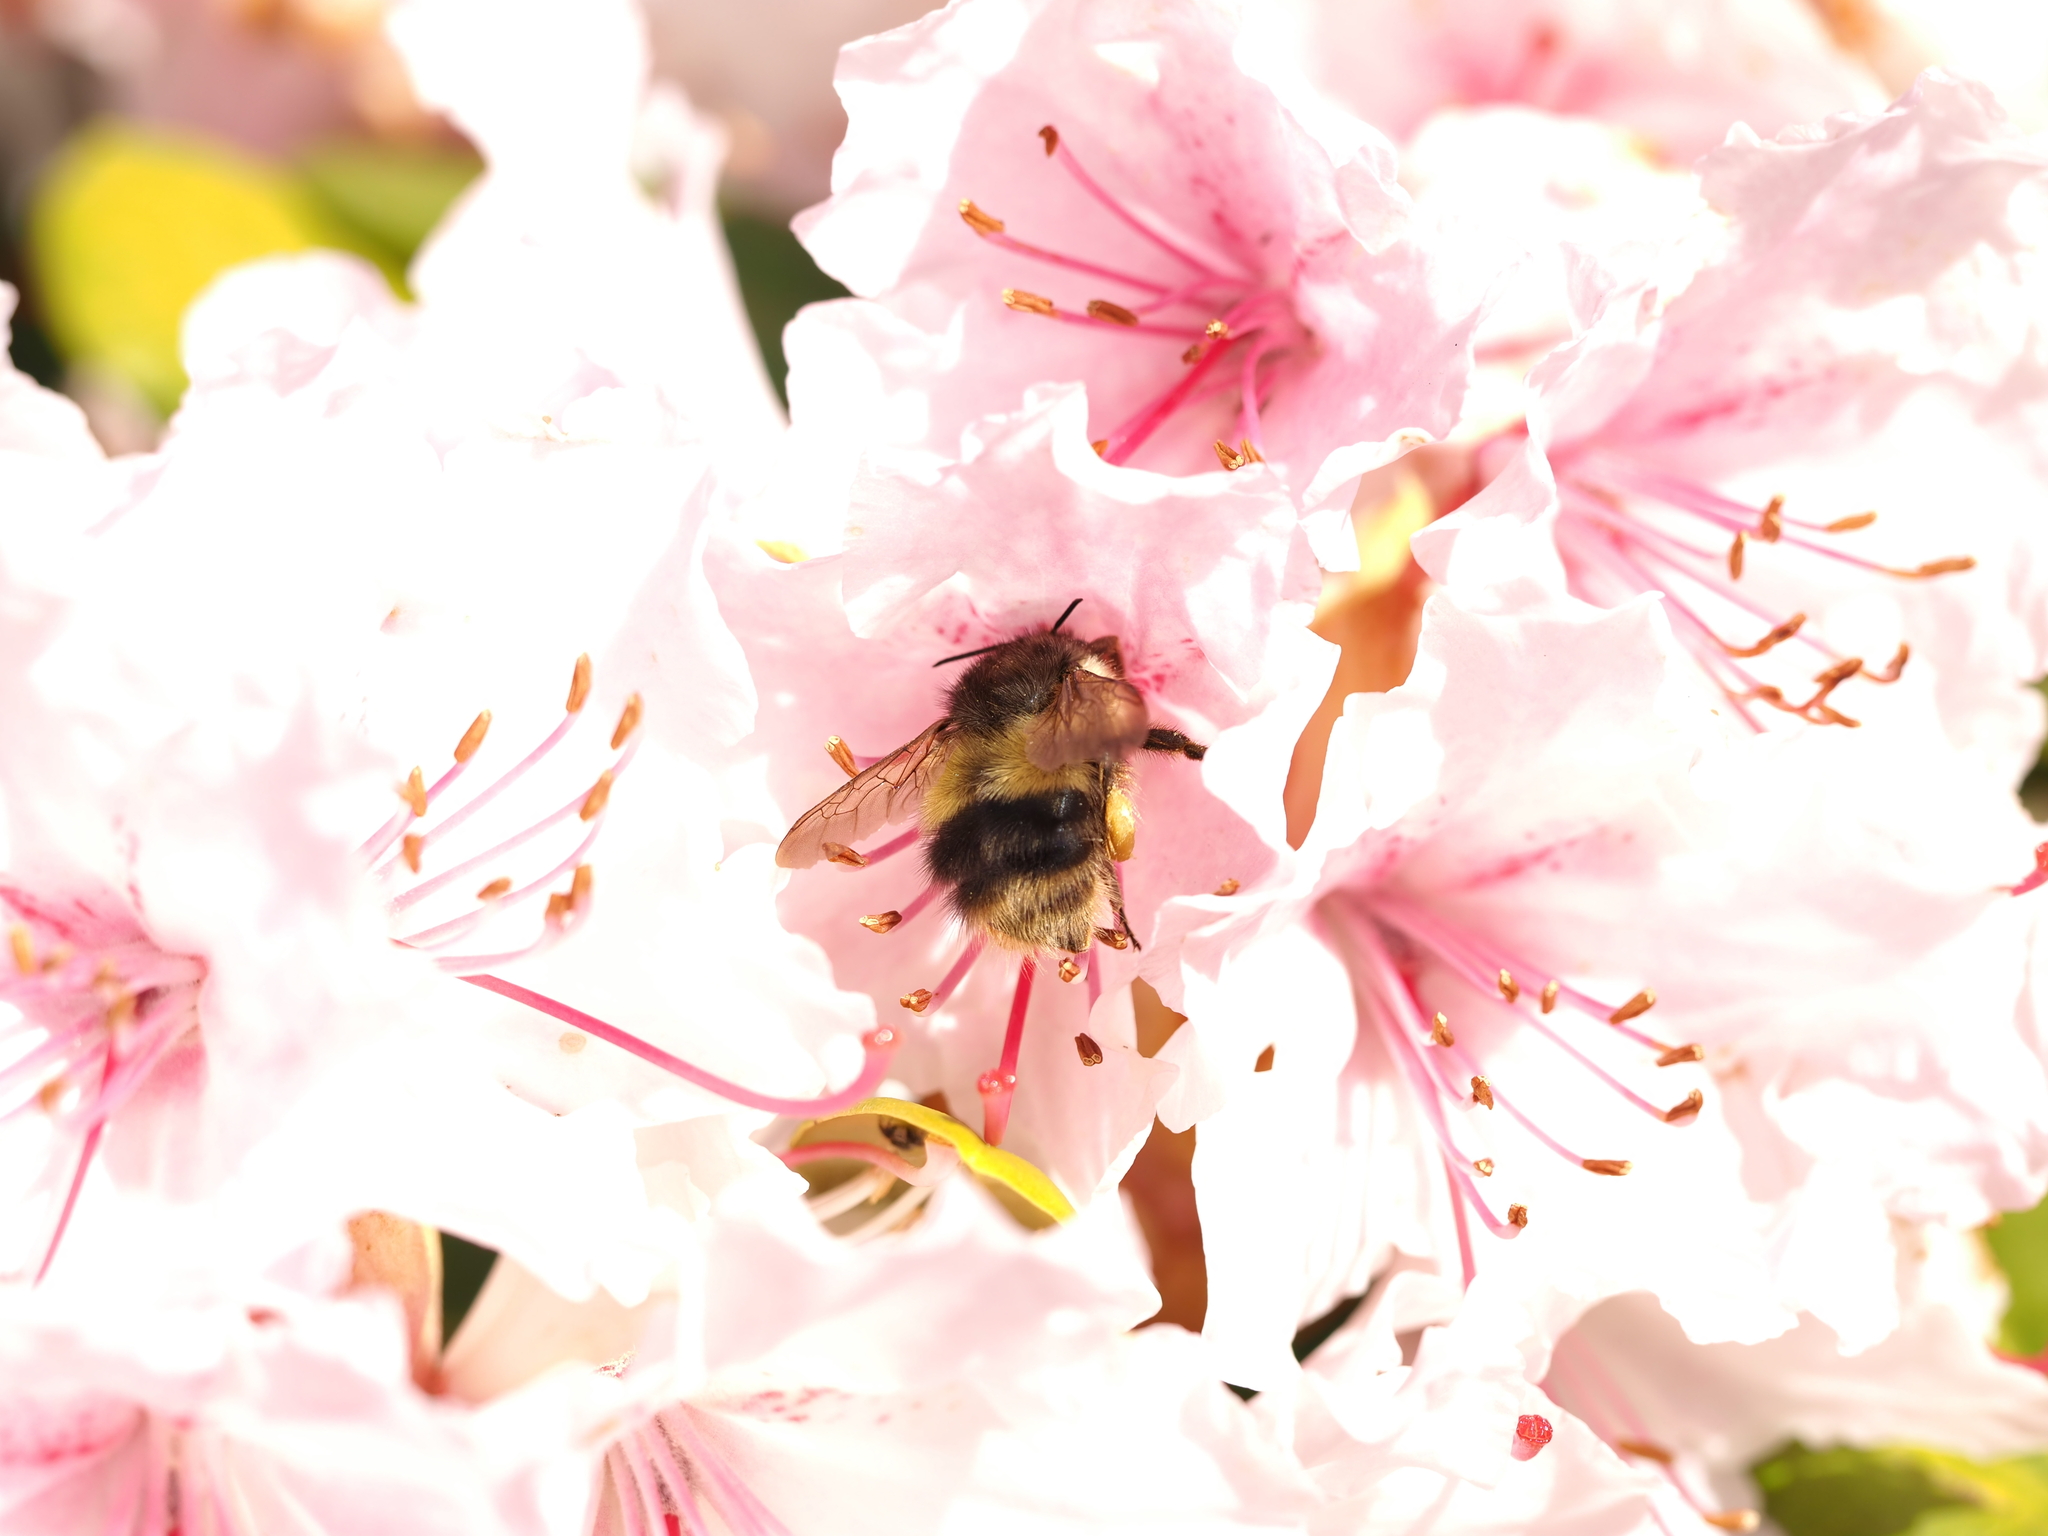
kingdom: Animalia
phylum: Arthropoda
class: Insecta
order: Hymenoptera
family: Apidae
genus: Bombus
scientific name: Bombus sitkensis
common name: Sitka bumble bee
